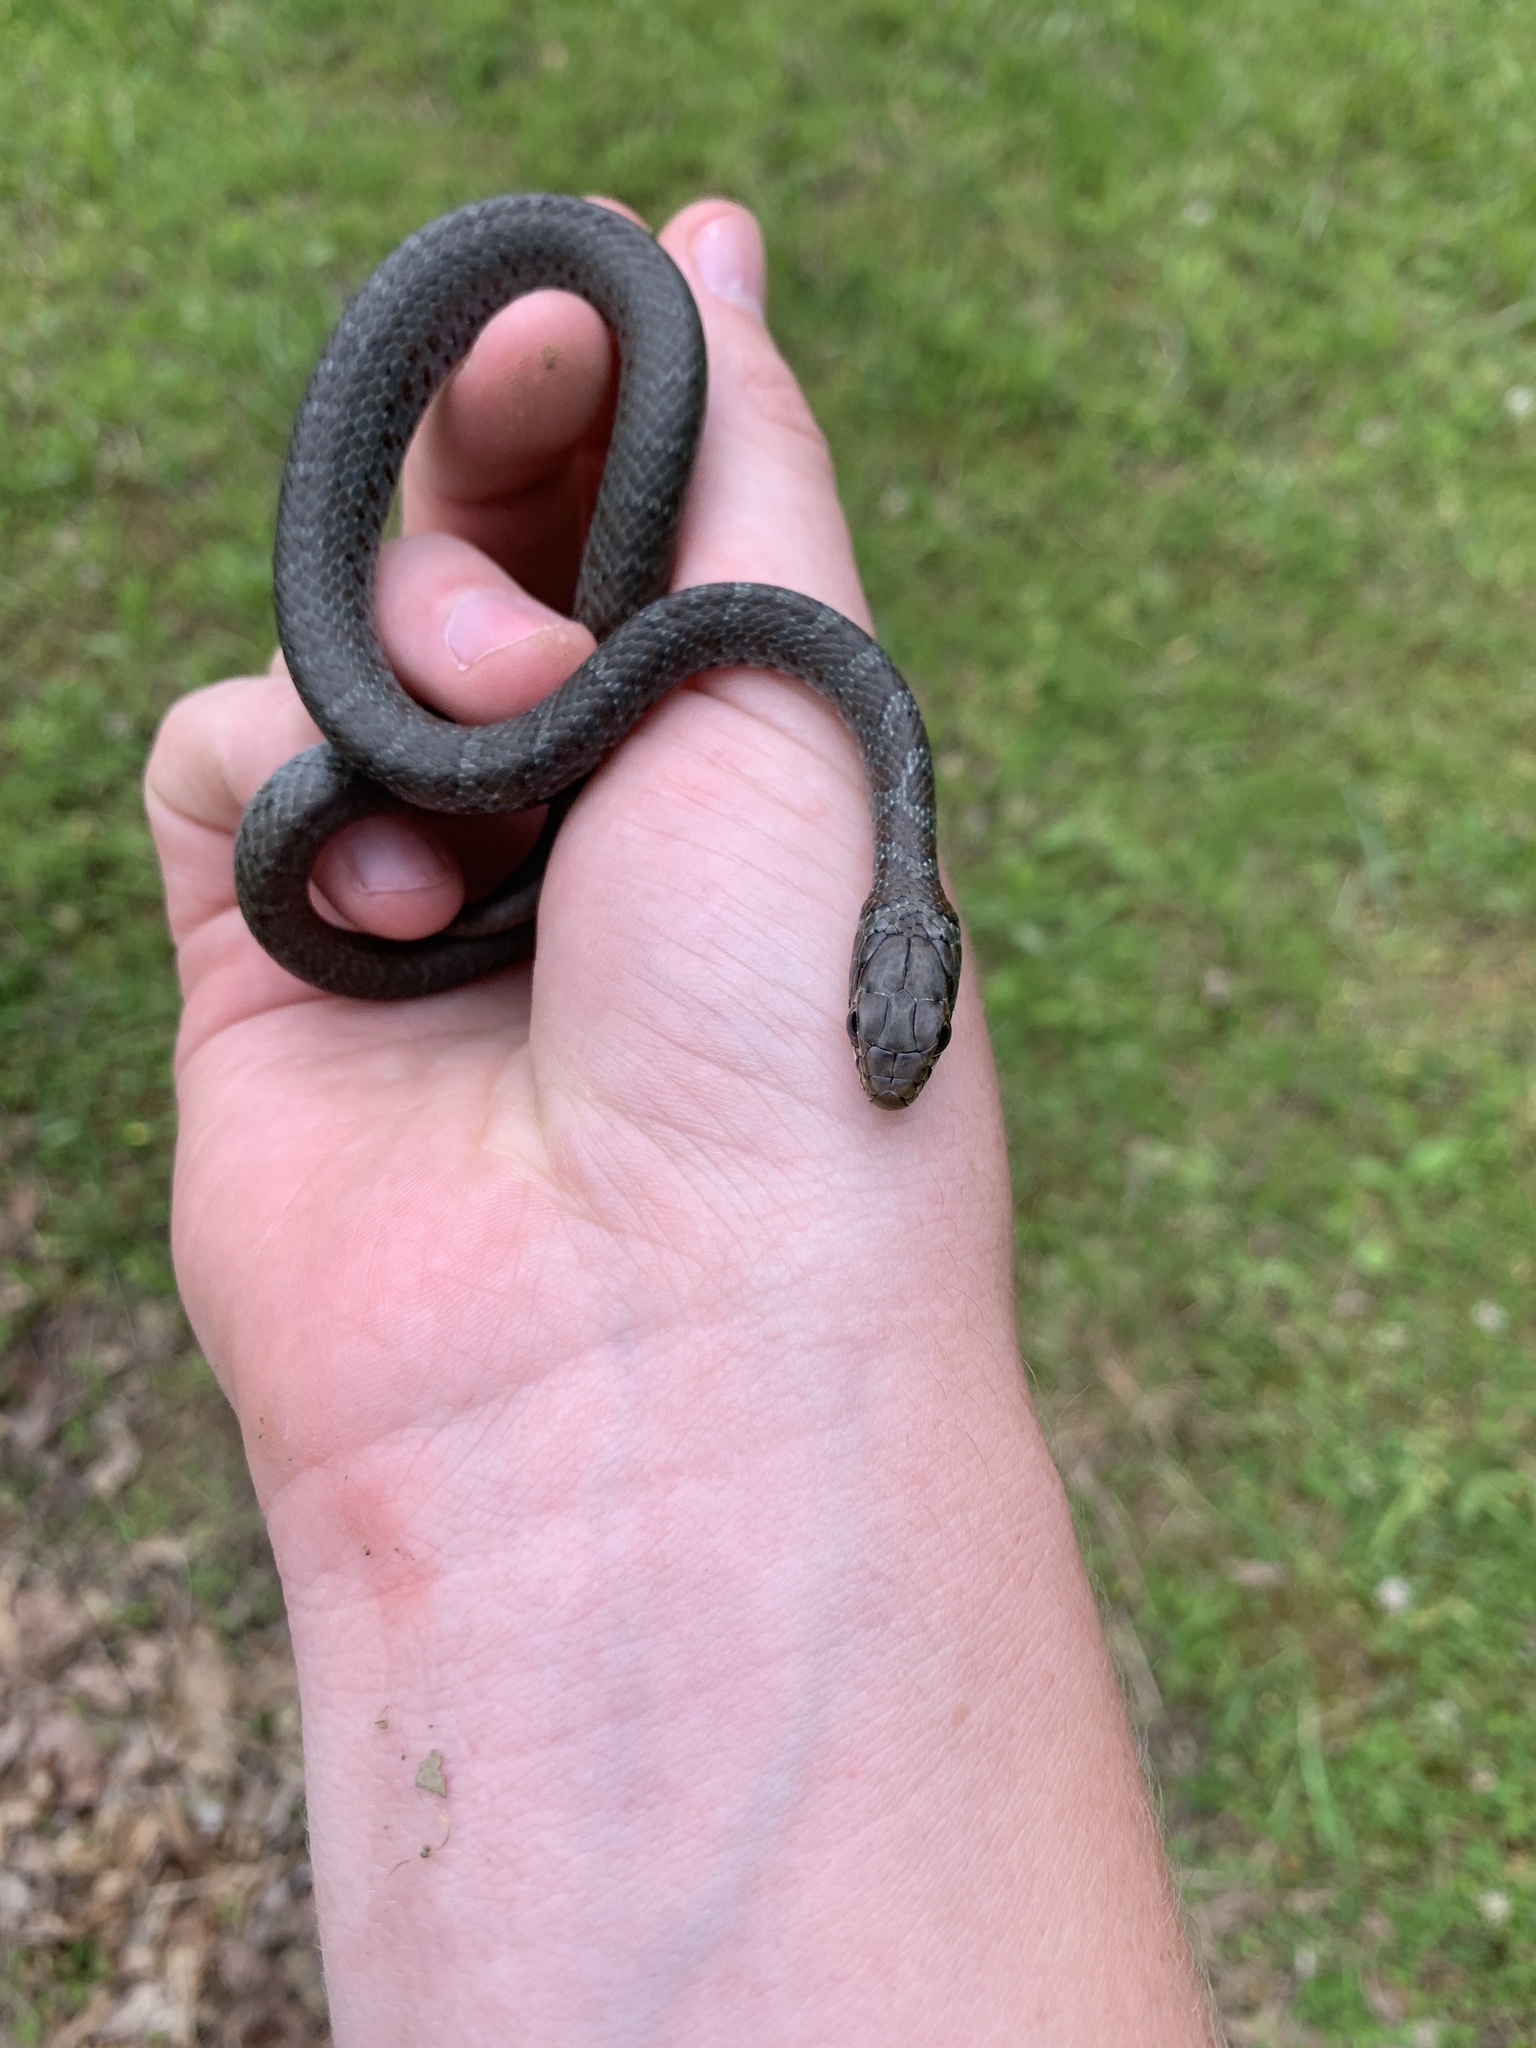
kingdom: Animalia
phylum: Chordata
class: Squamata
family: Colubridae
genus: Coluber
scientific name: Coluber constrictor
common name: Eastern racer
